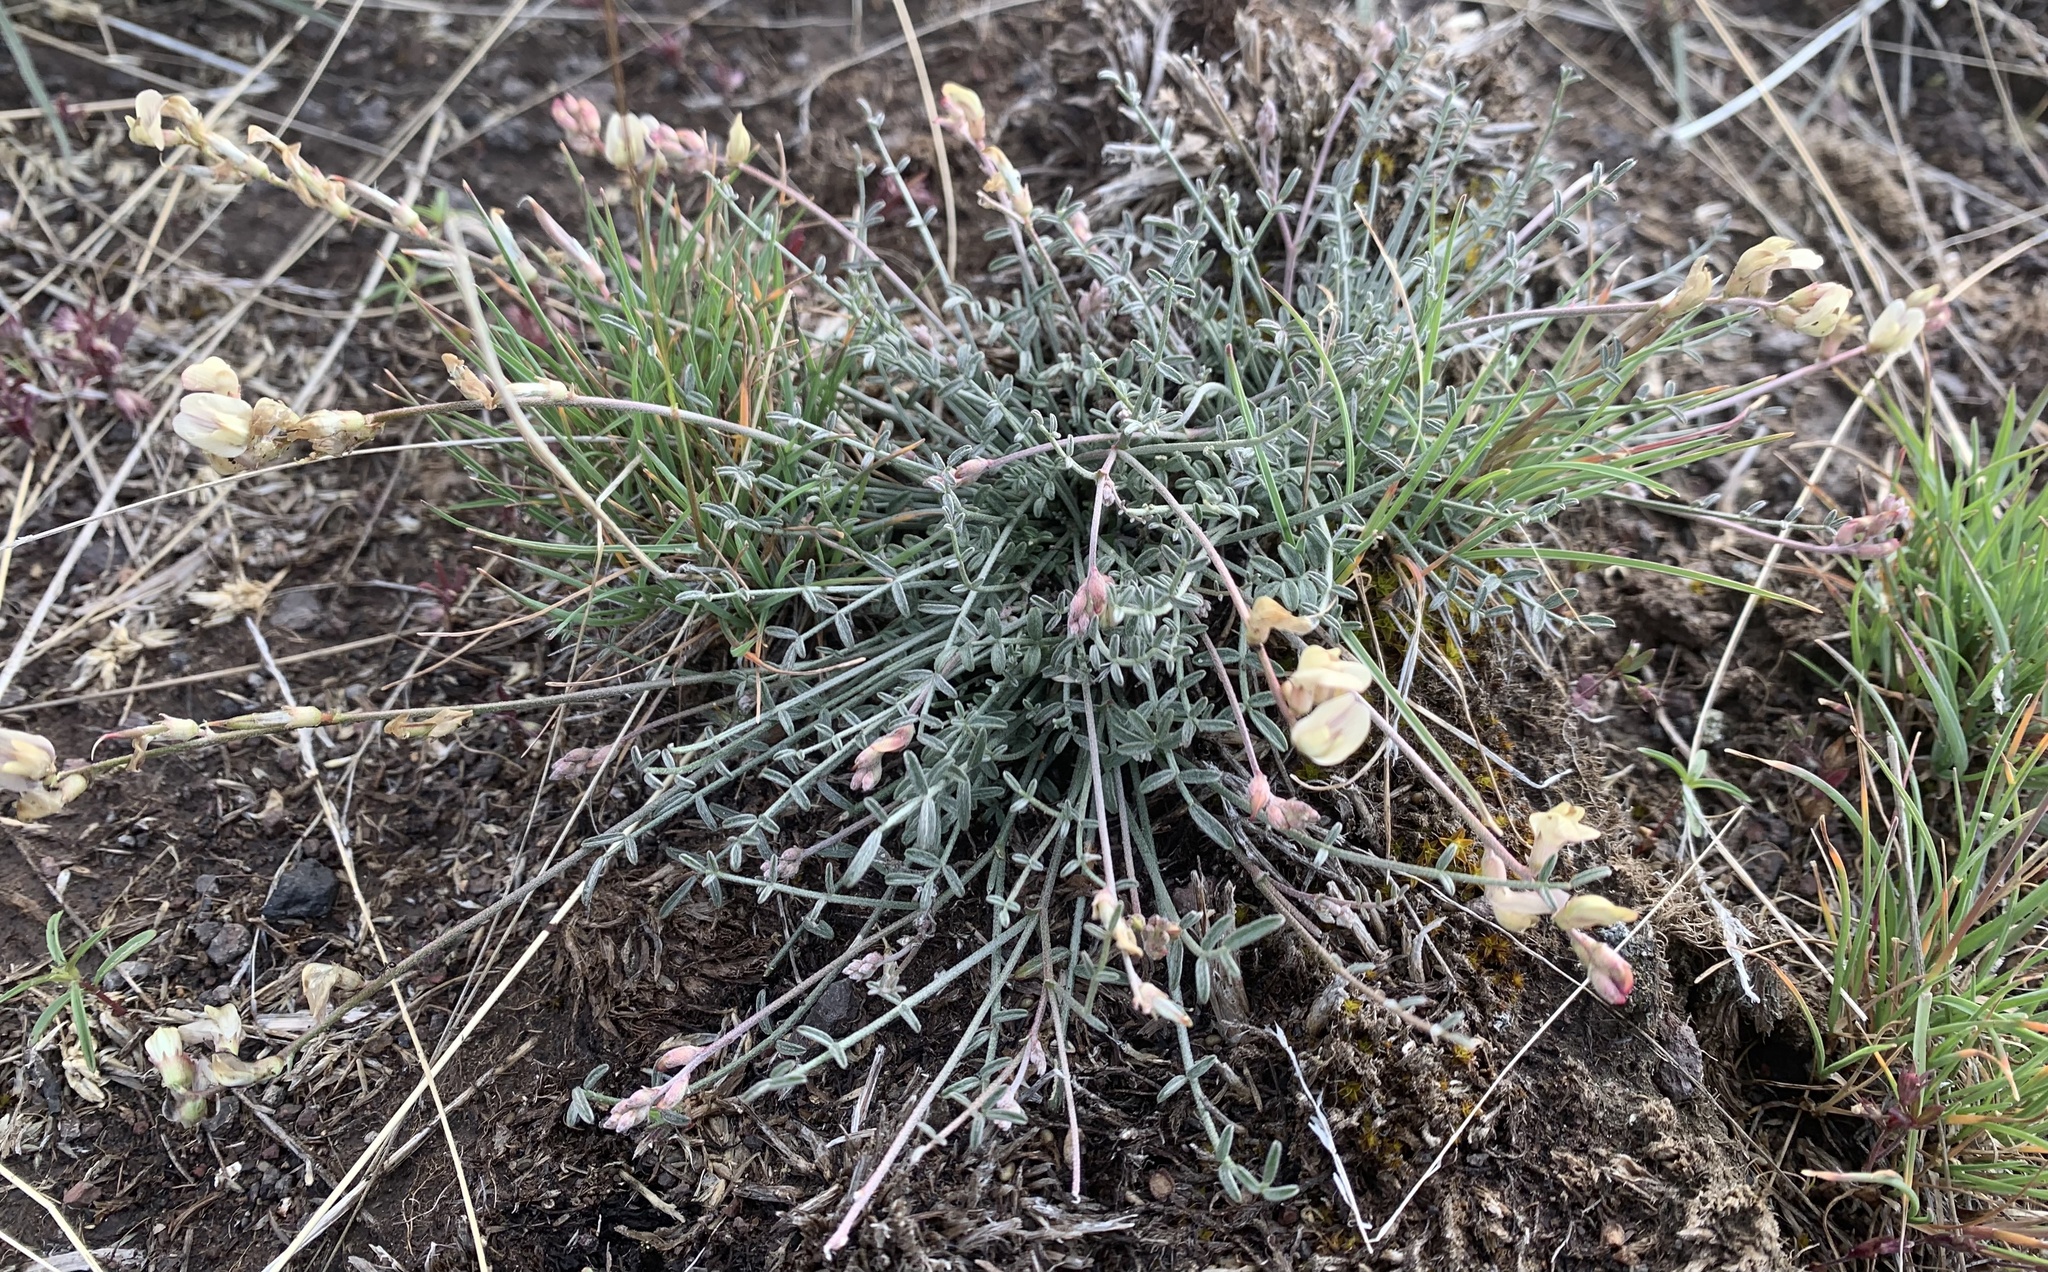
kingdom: Plantae
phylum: Tracheophyta
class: Magnoliopsida
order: Fabales
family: Fabaceae
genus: Astragalus
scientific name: Astragalus obscurus
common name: Arcane milk-vetch
